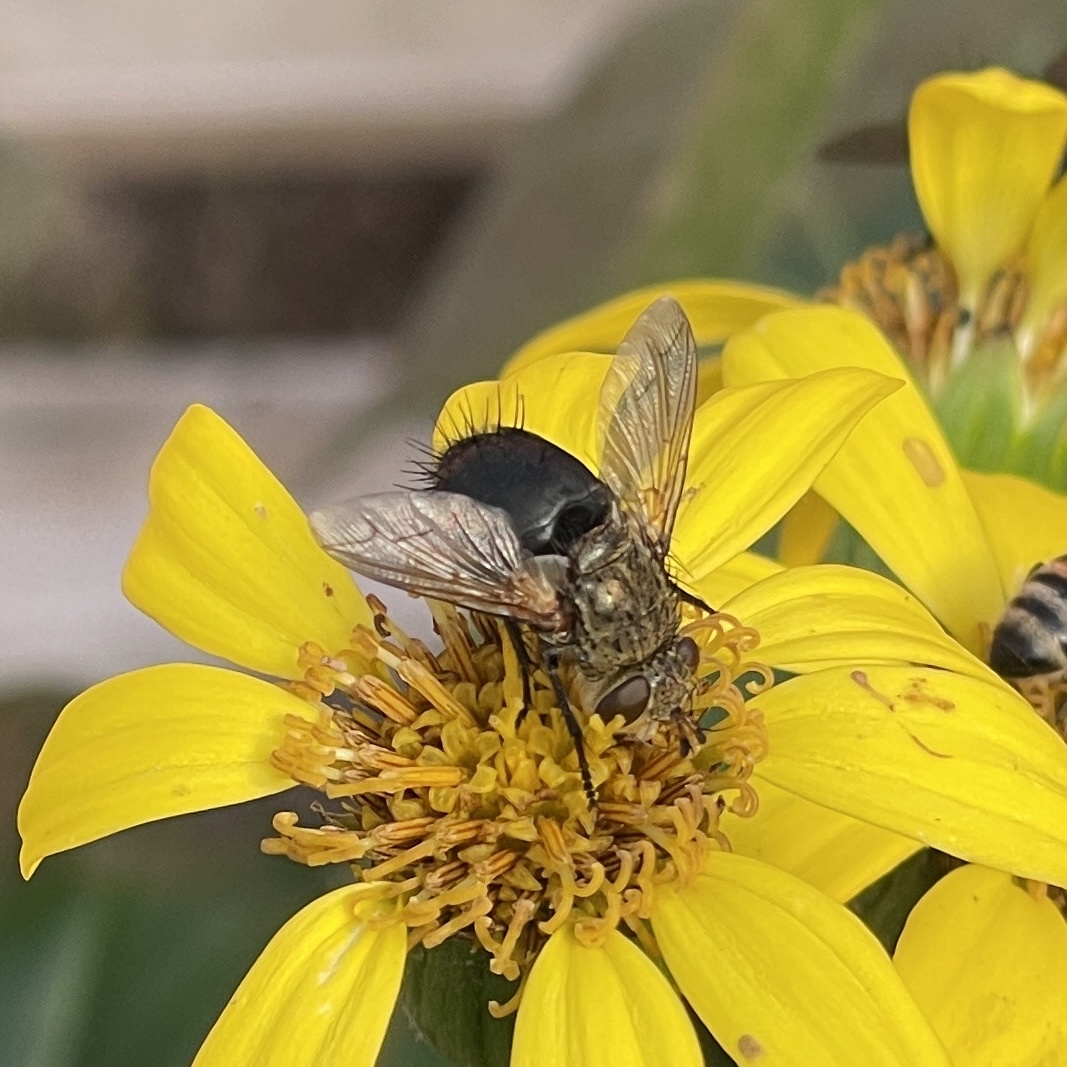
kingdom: Animalia
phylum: Arthropoda
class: Insecta
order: Diptera
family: Tachinidae
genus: Archytas
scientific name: Archytas apicifer
